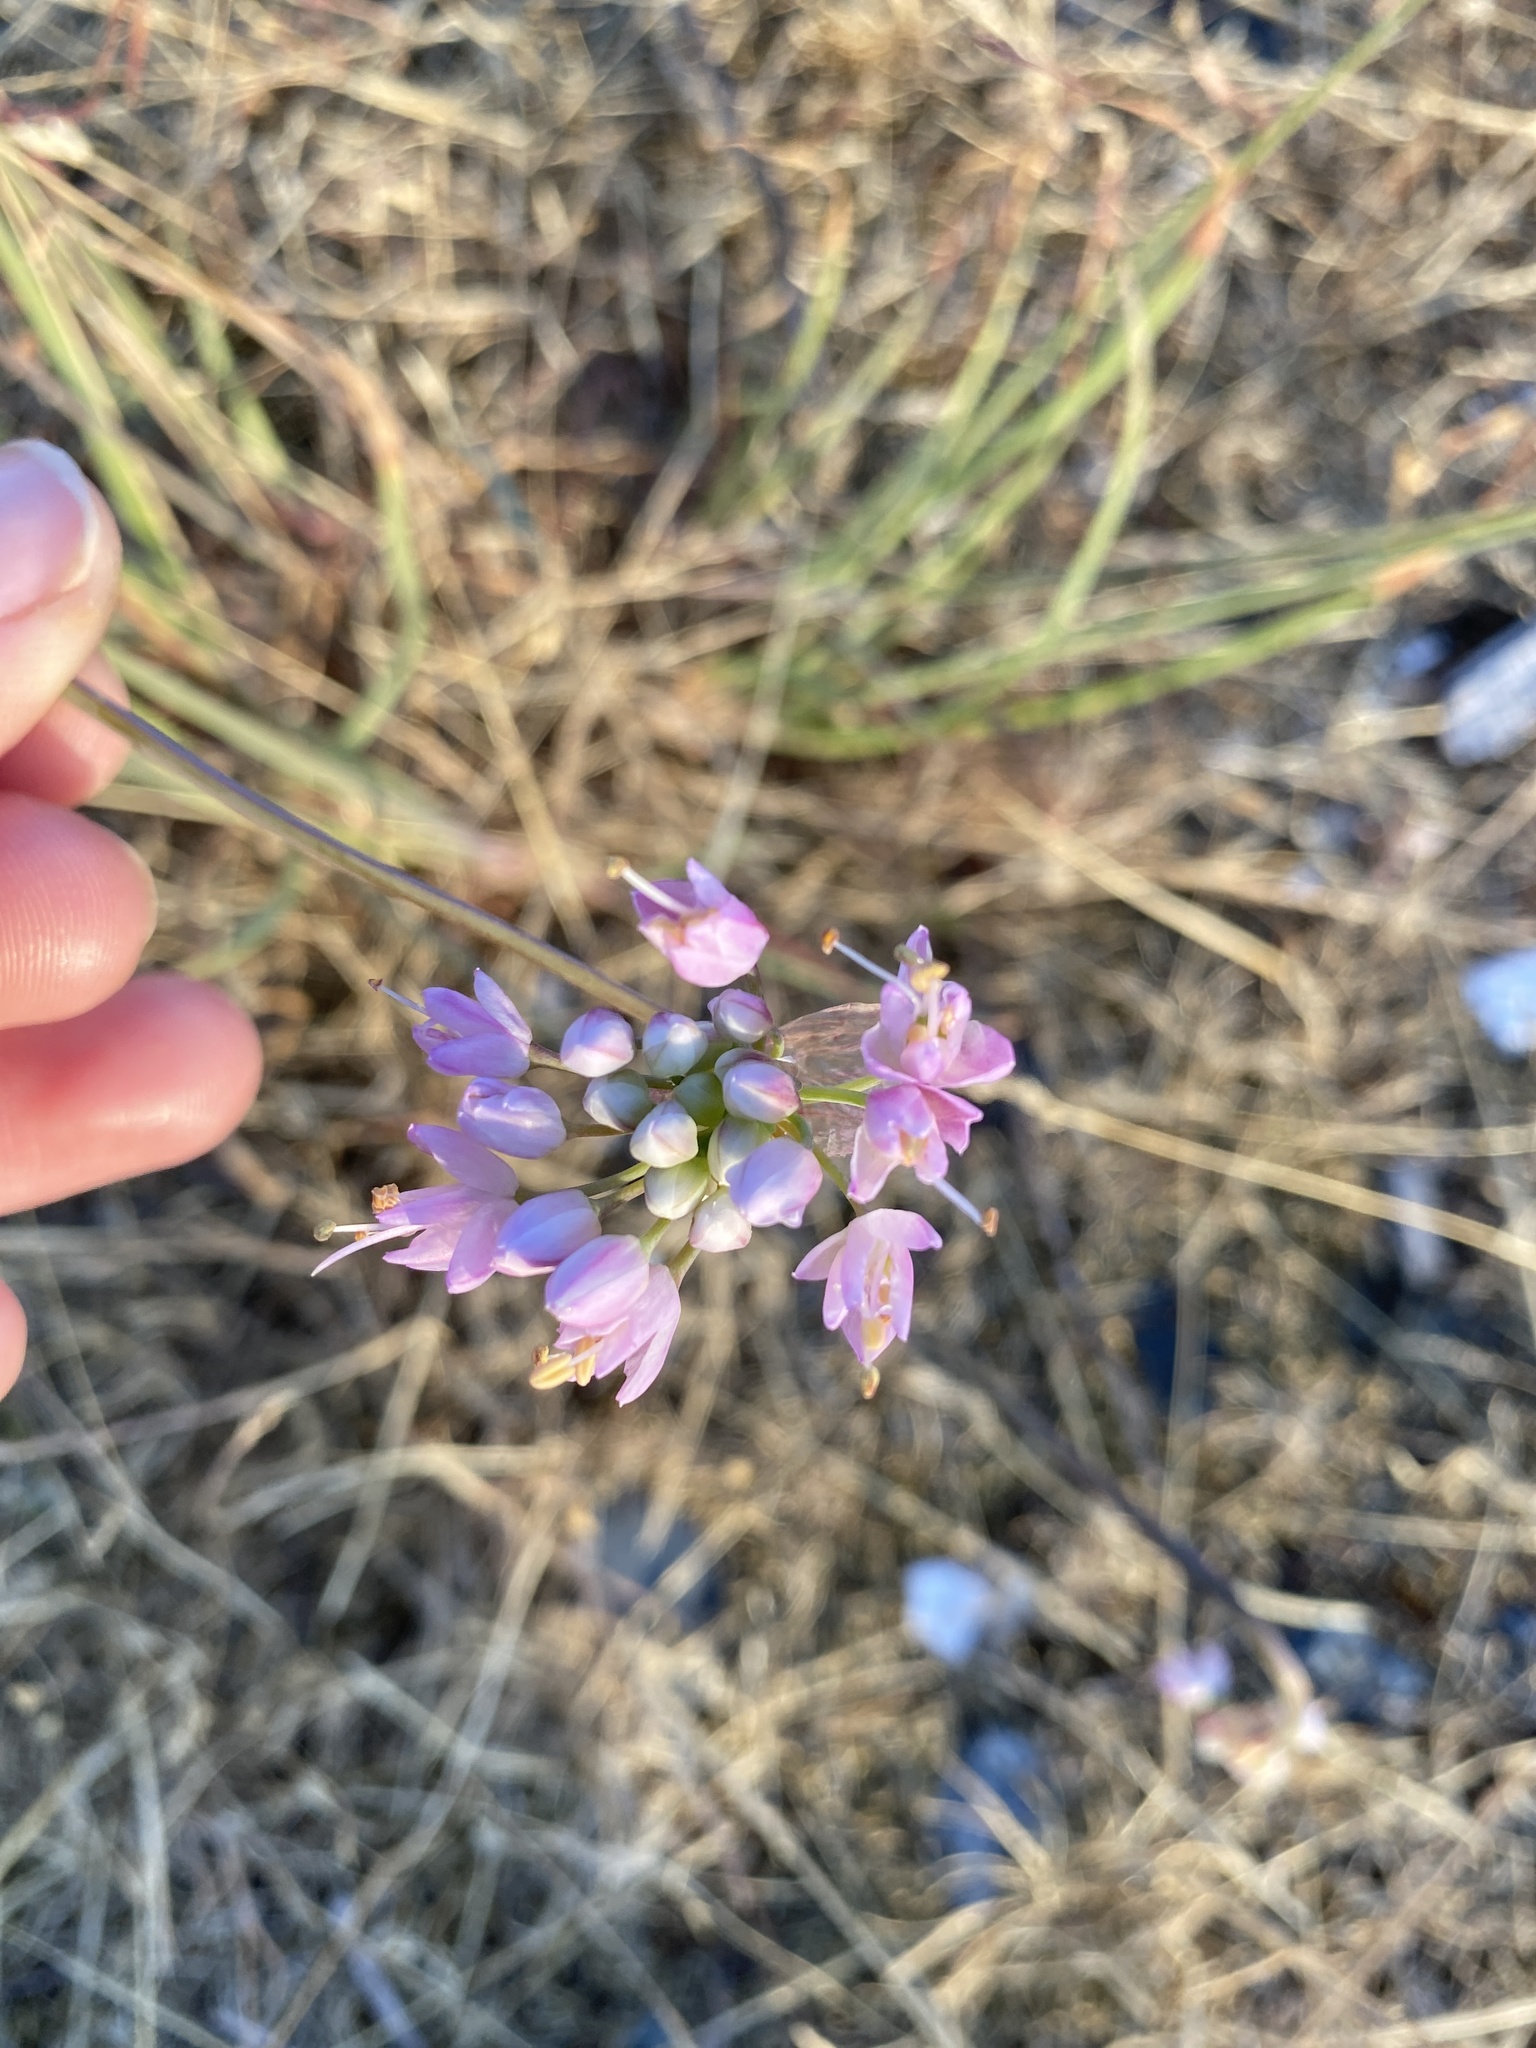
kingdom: Plantae
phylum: Tracheophyta
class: Liliopsida
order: Asparagales
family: Amaryllidaceae
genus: Allium
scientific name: Allium cernuum
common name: Nodding onion
